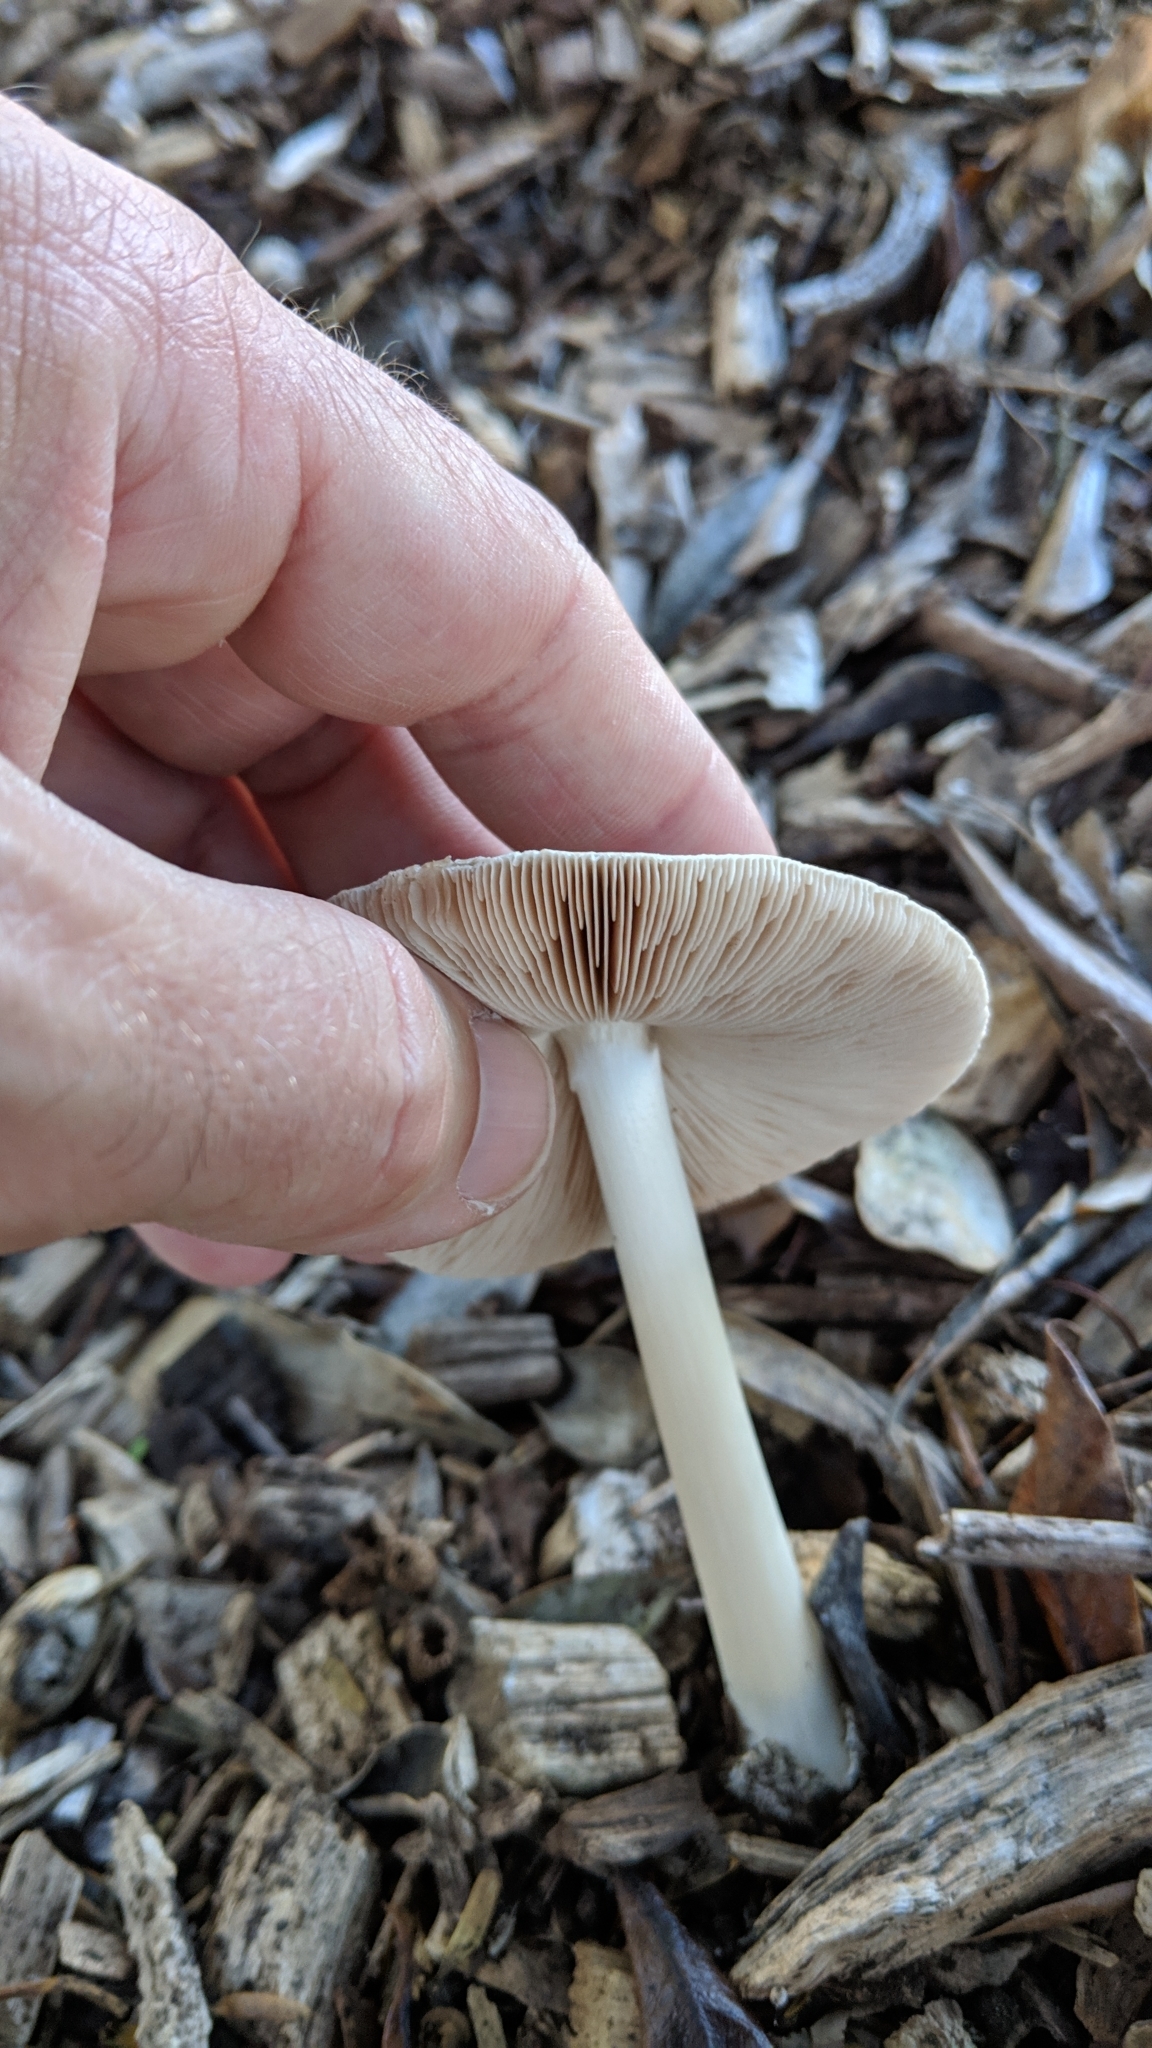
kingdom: Fungi
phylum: Basidiomycota
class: Agaricomycetes
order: Agaricales
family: Pluteaceae
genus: Volvopluteus
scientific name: Volvopluteus gloiocephalus
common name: Stubble rosegill
